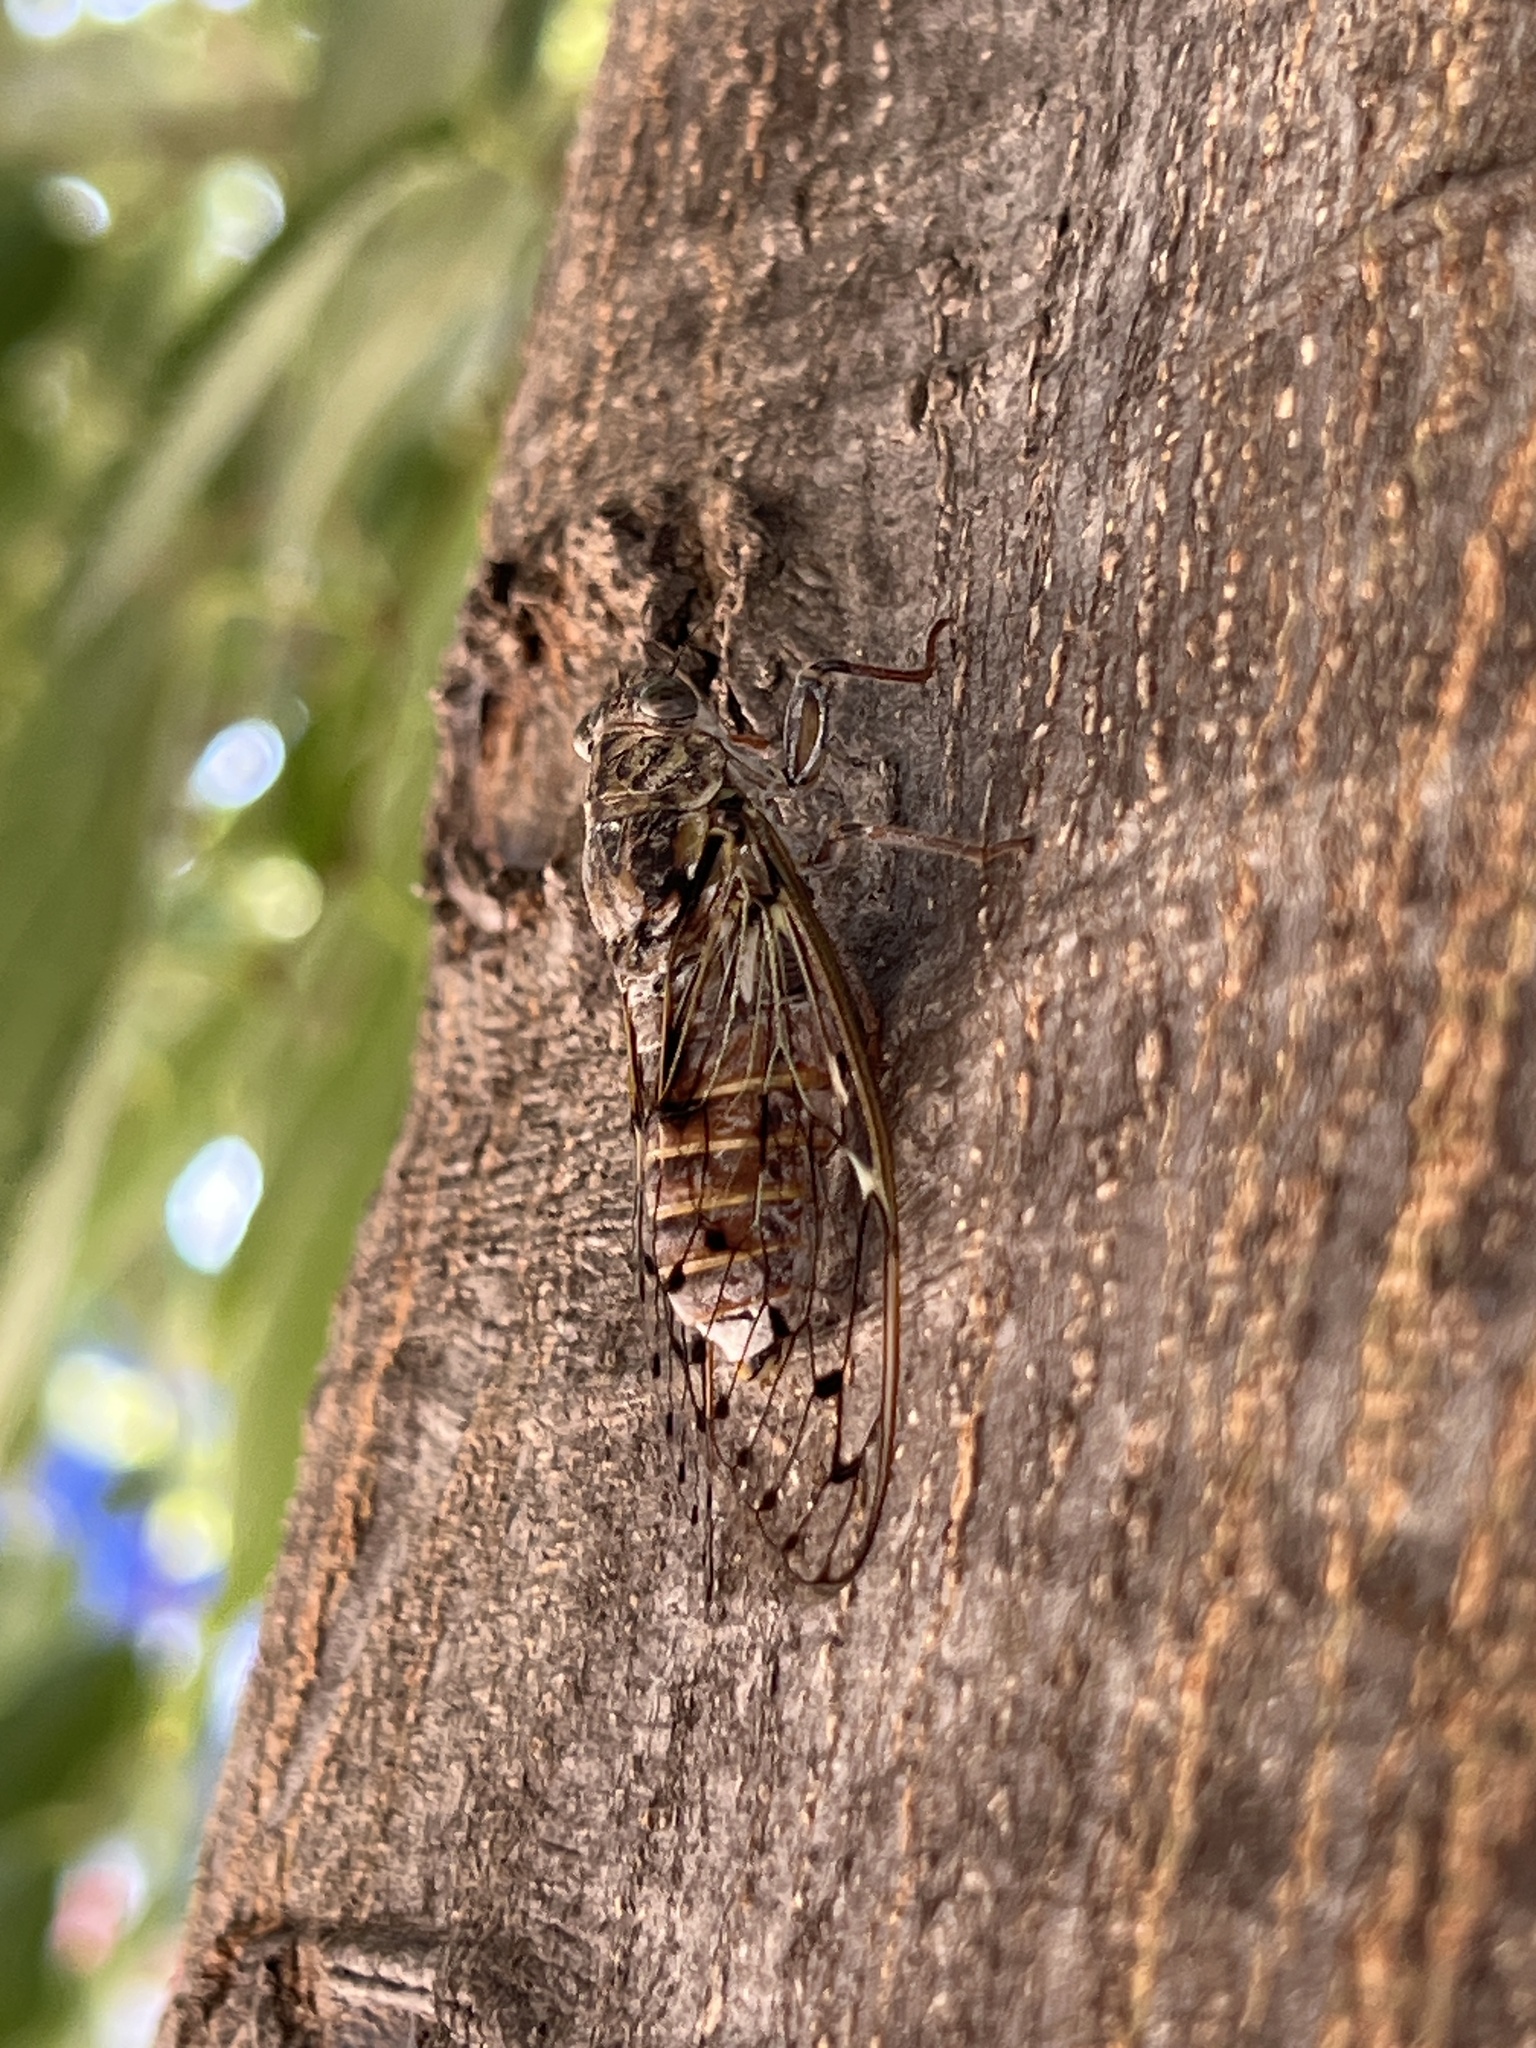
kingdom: Animalia
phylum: Arthropoda
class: Insecta
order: Hemiptera
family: Cicadidae
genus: Cicada
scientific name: Cicada orni
